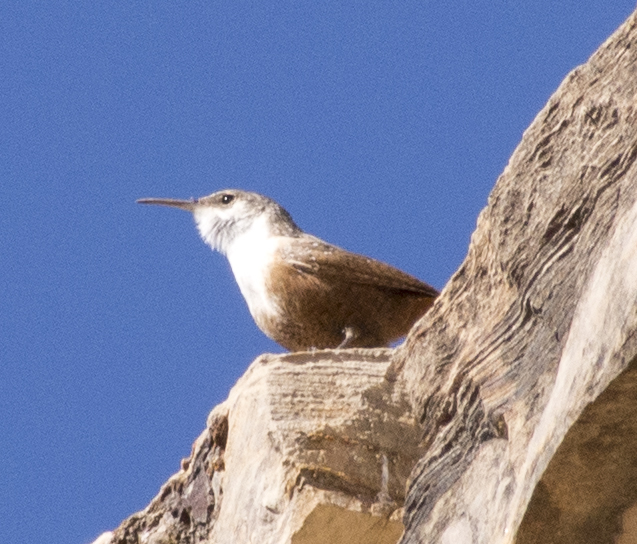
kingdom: Animalia
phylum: Chordata
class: Aves
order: Passeriformes
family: Troglodytidae
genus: Catherpes
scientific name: Catherpes mexicanus
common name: Canyon wren
